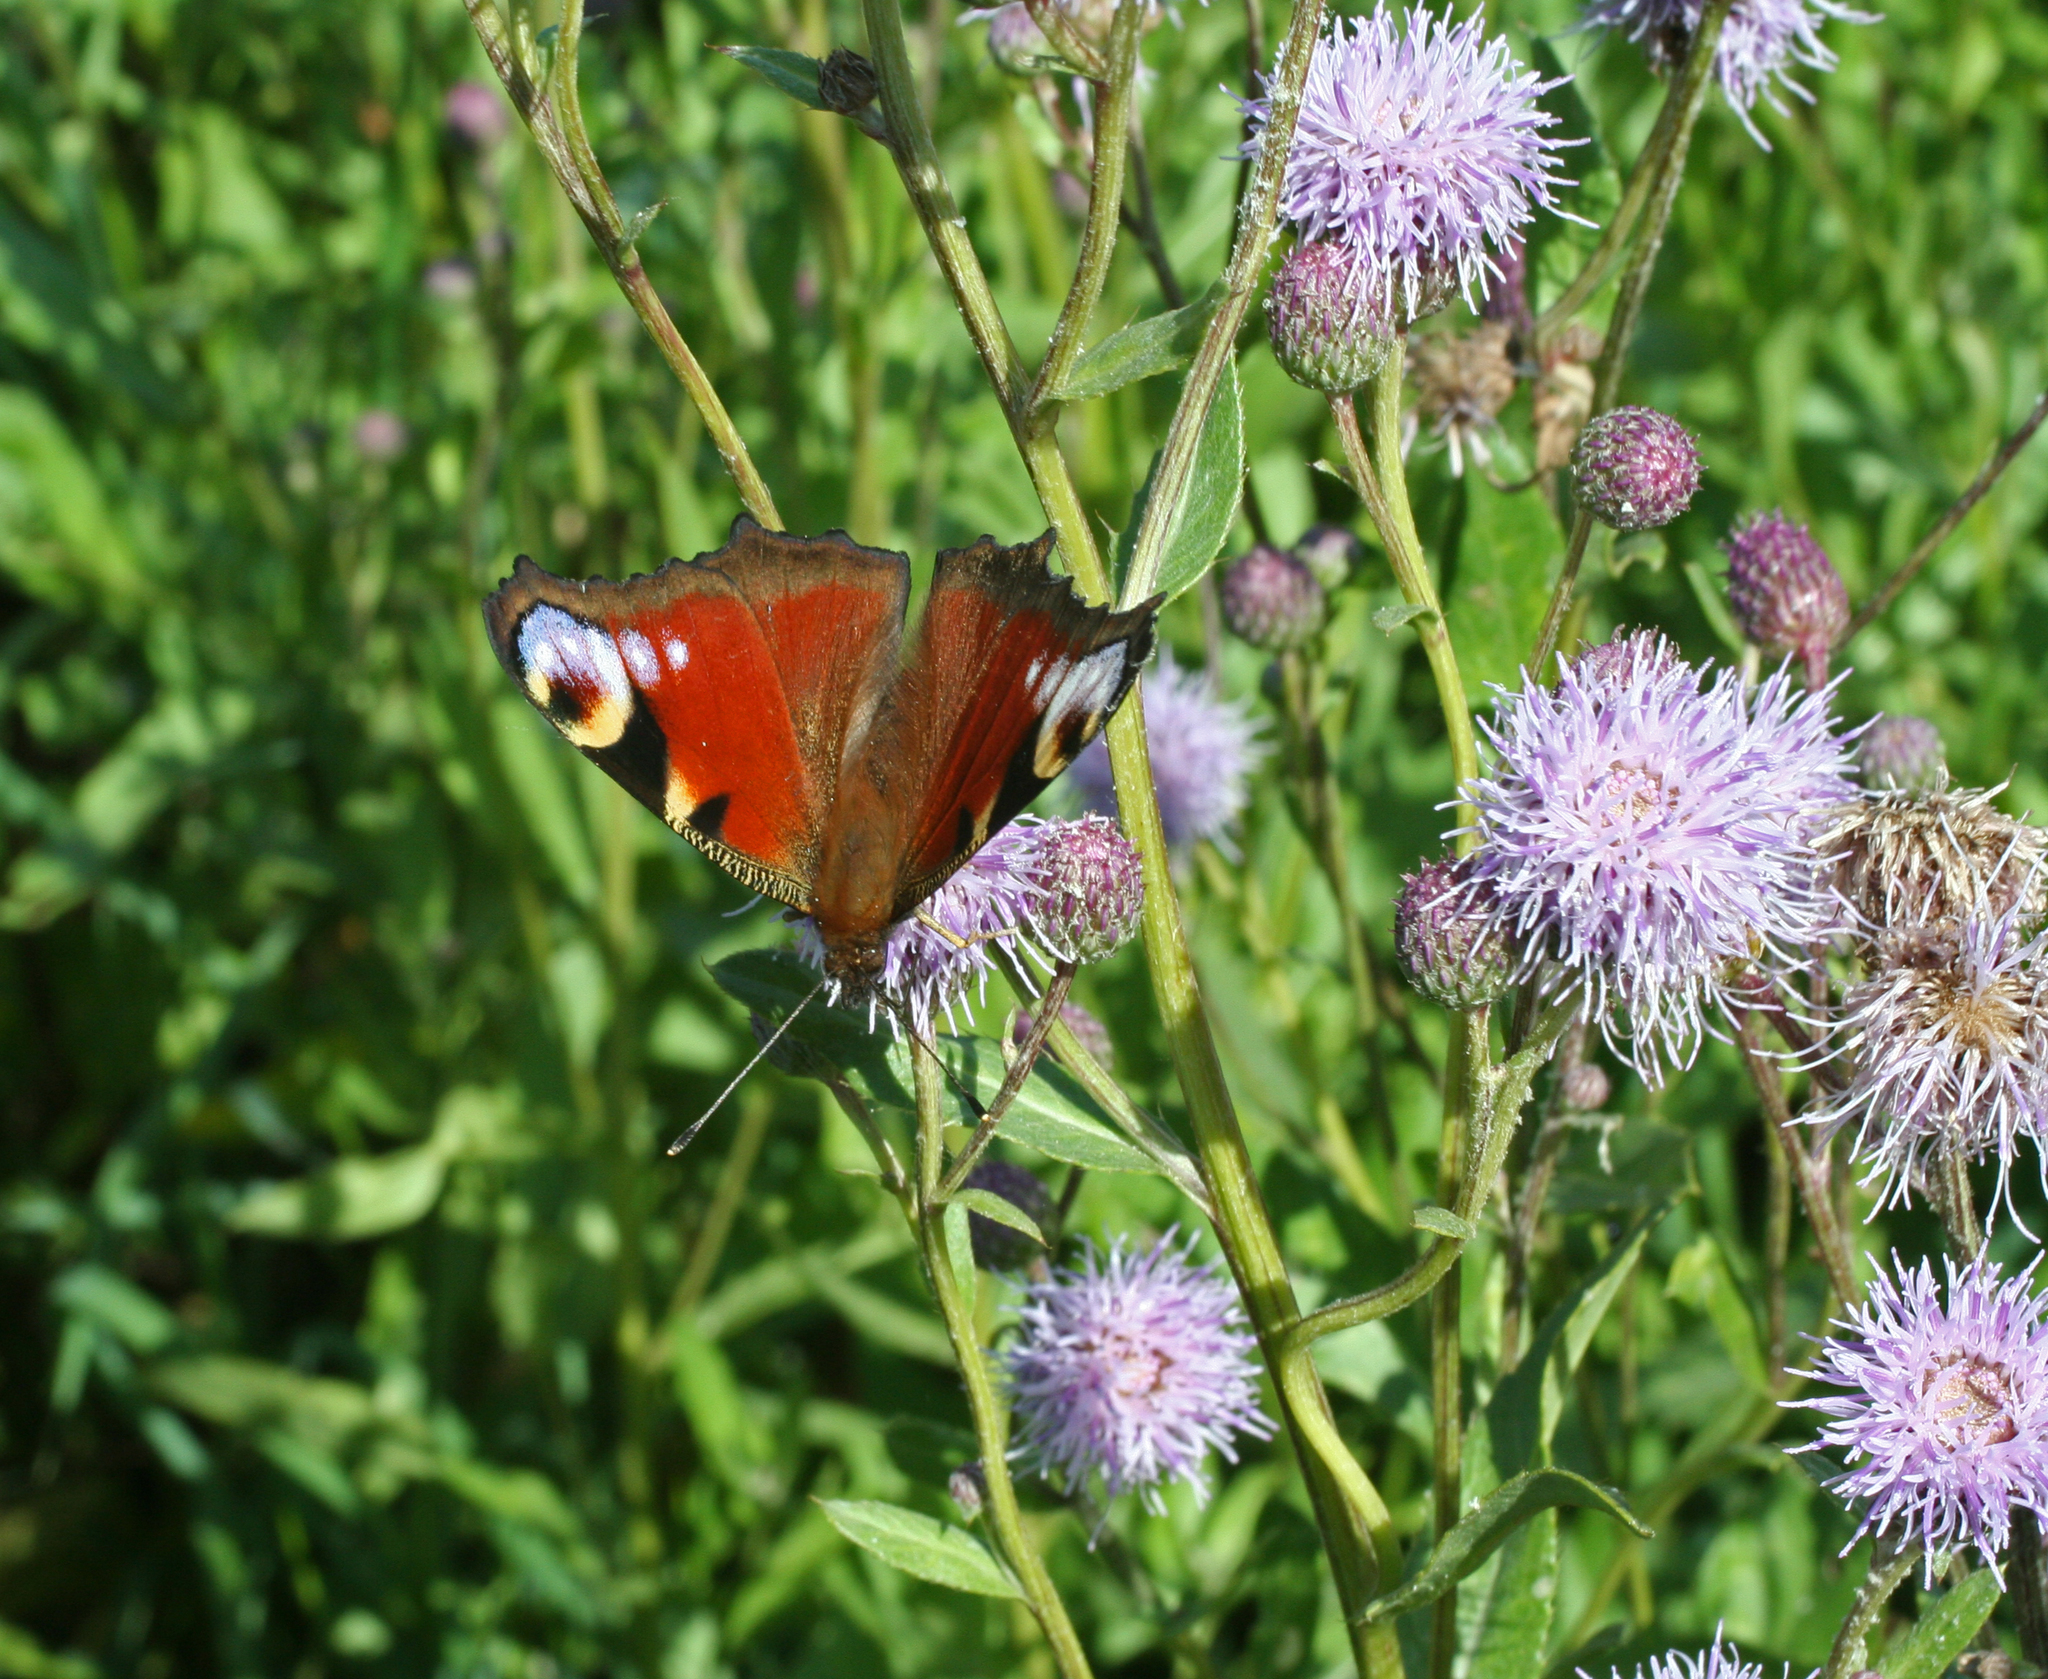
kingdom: Plantae
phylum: Tracheophyta
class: Magnoliopsida
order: Asterales
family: Asteraceae
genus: Cirsium
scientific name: Cirsium arvense
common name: Creeping thistle
